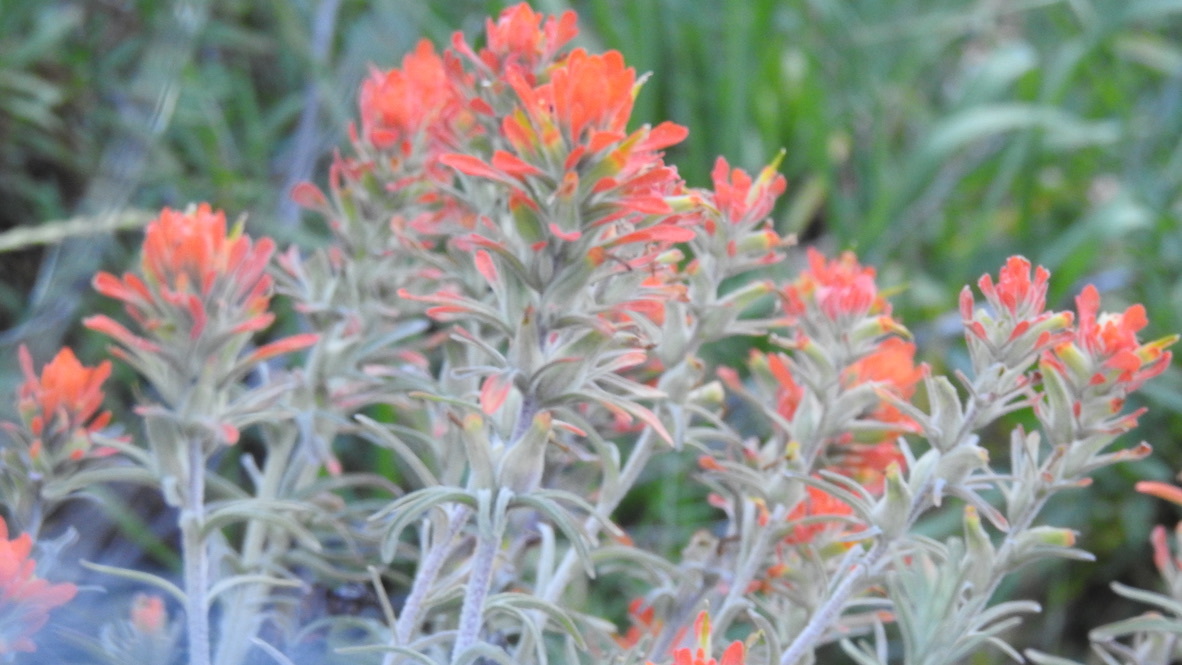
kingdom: Plantae
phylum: Tracheophyta
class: Magnoliopsida
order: Lamiales
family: Orobanchaceae
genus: Castilleja
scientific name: Castilleja foliolosa
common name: Woolly indian paintbrush
